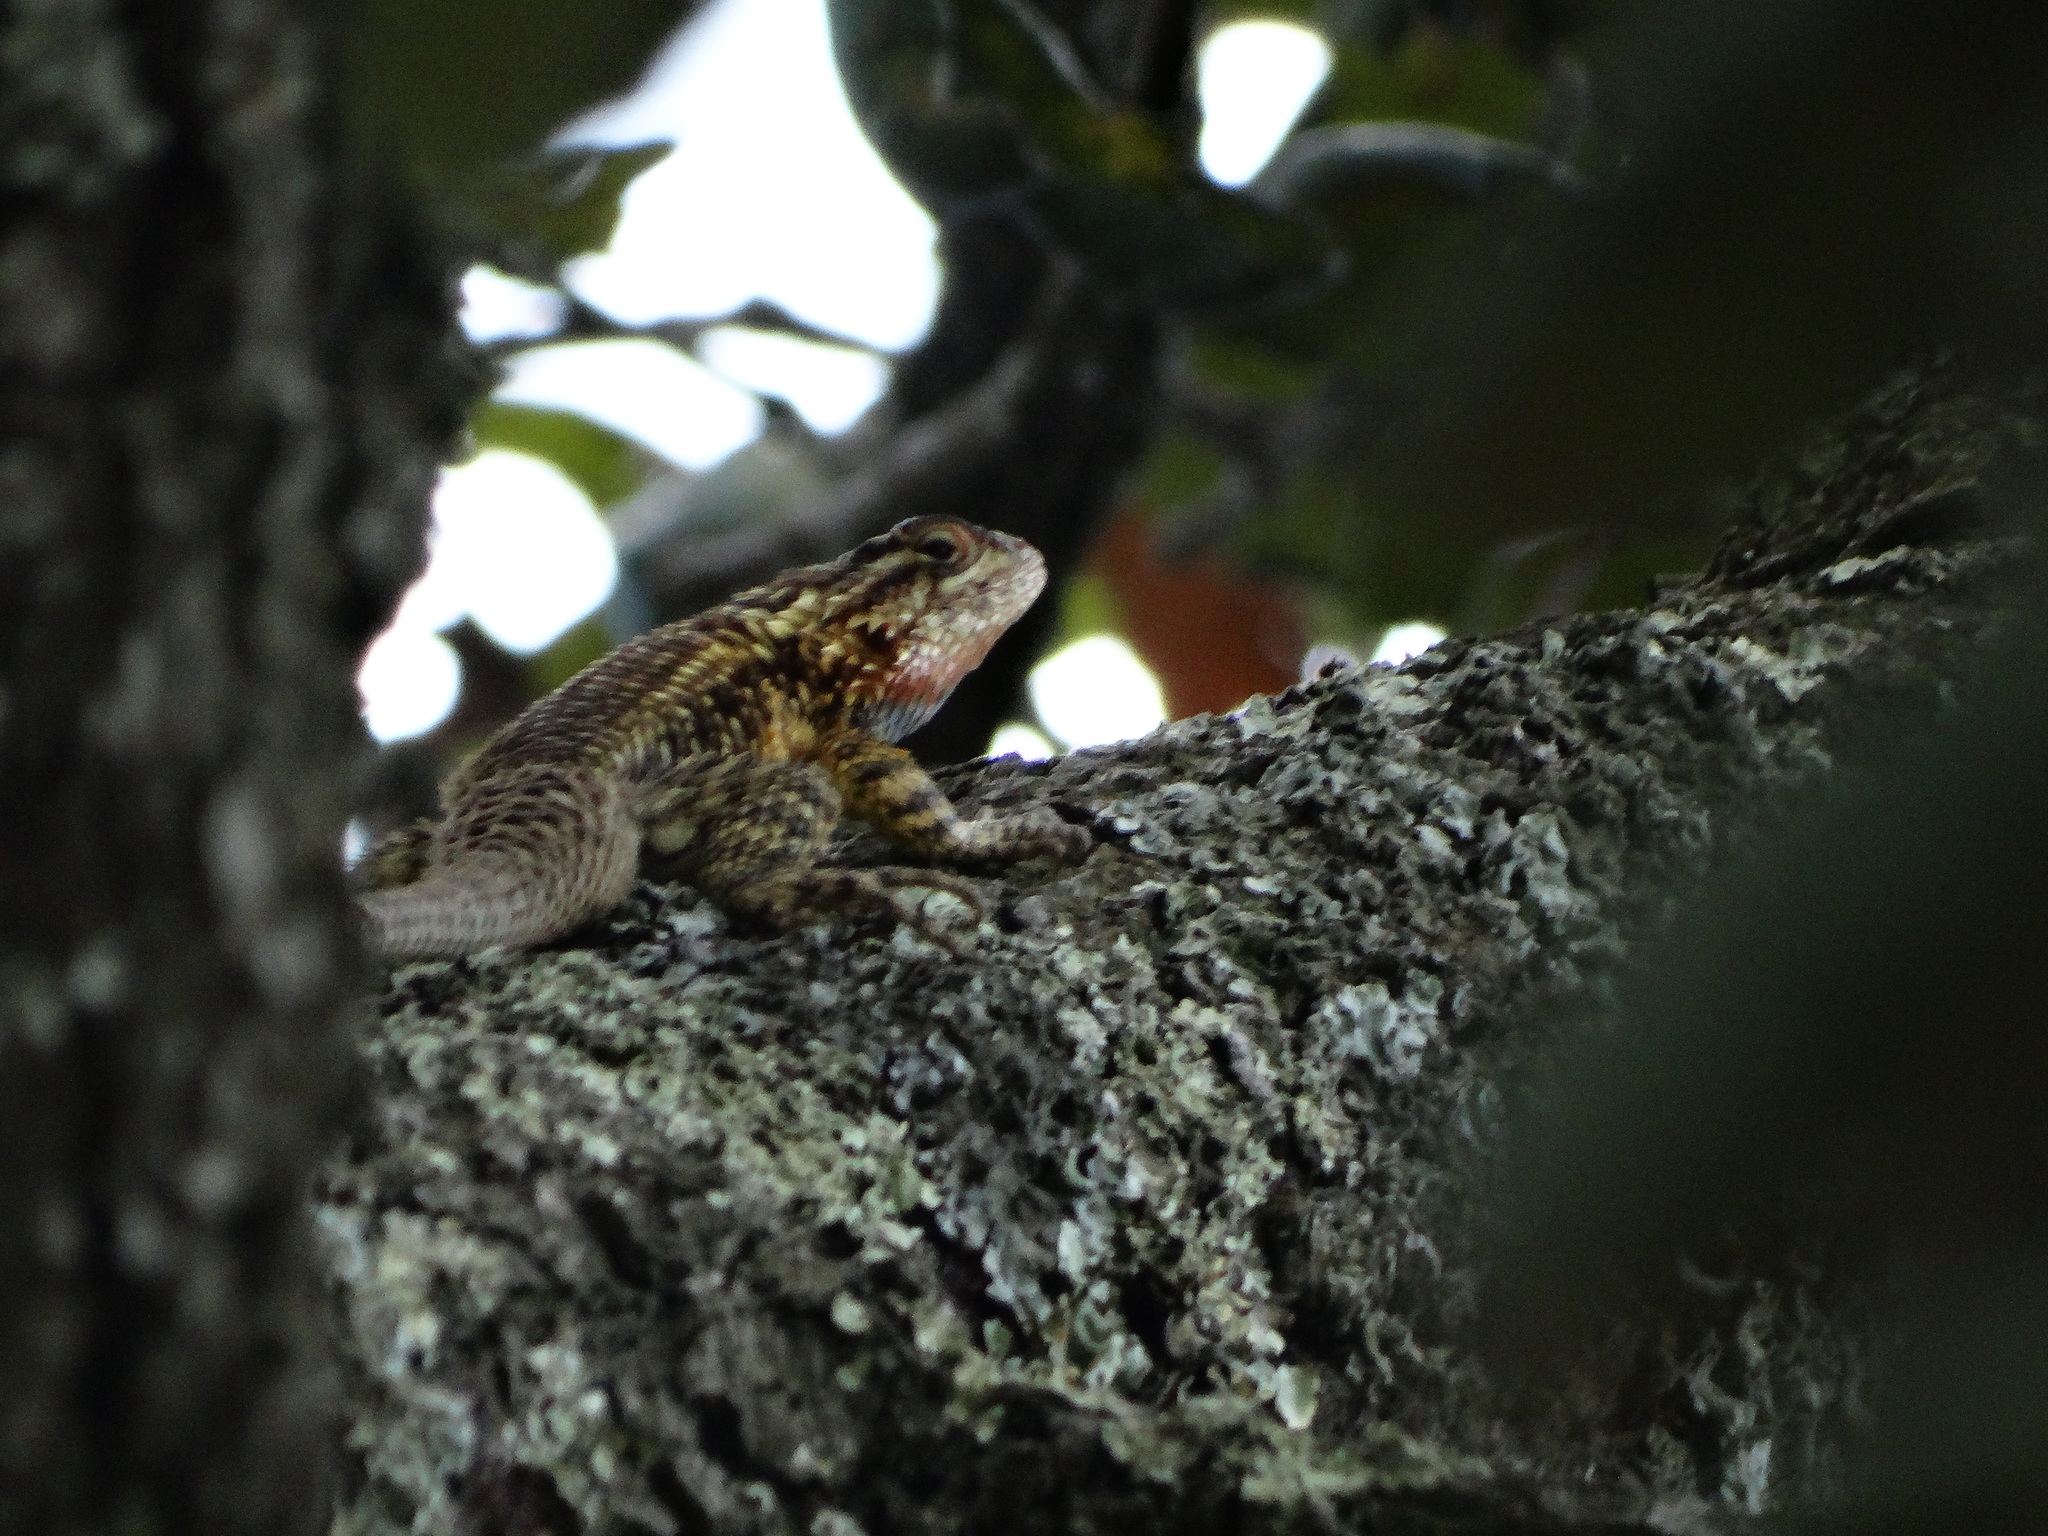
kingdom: Animalia
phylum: Chordata
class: Squamata
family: Phrynosomatidae
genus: Sceloporus
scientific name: Sceloporus spinosus
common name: Blue-spotted spiny lizard [caeruleopunctatus]
